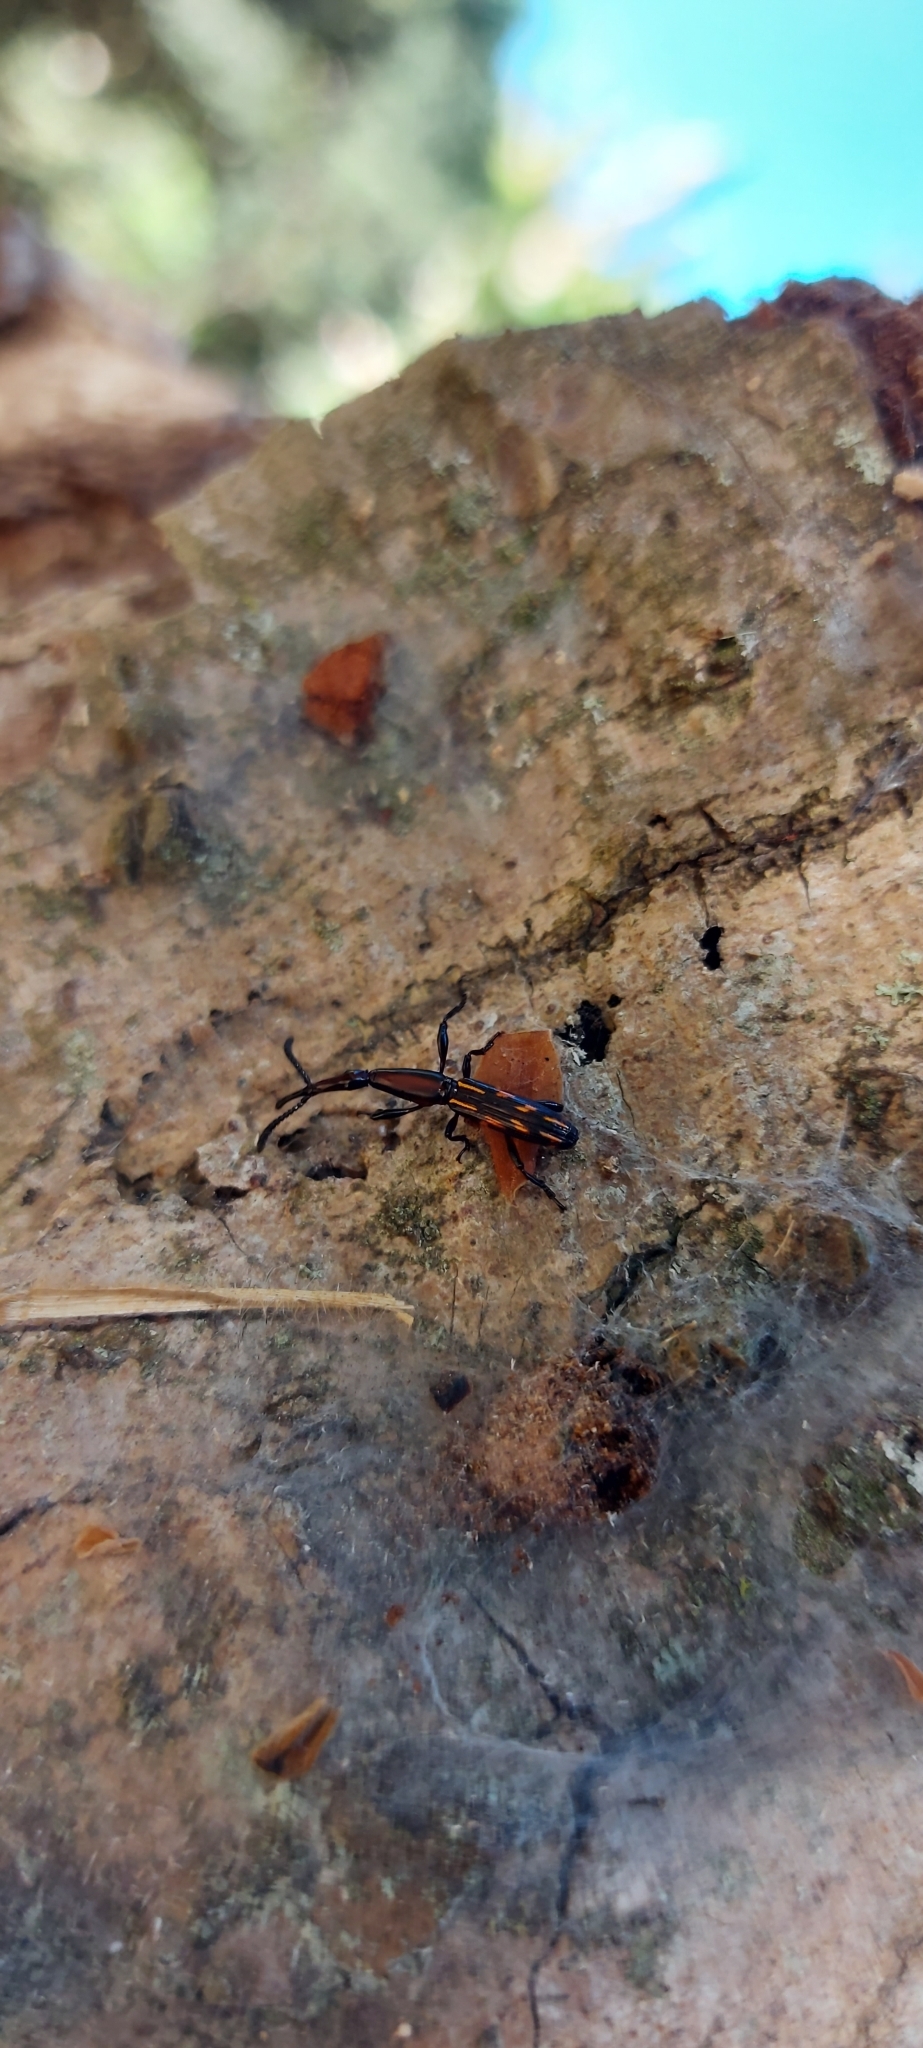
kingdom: Animalia
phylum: Arthropoda
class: Insecta
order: Coleoptera
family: Brentidae
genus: Brentus
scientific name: Brentus vulneratus
